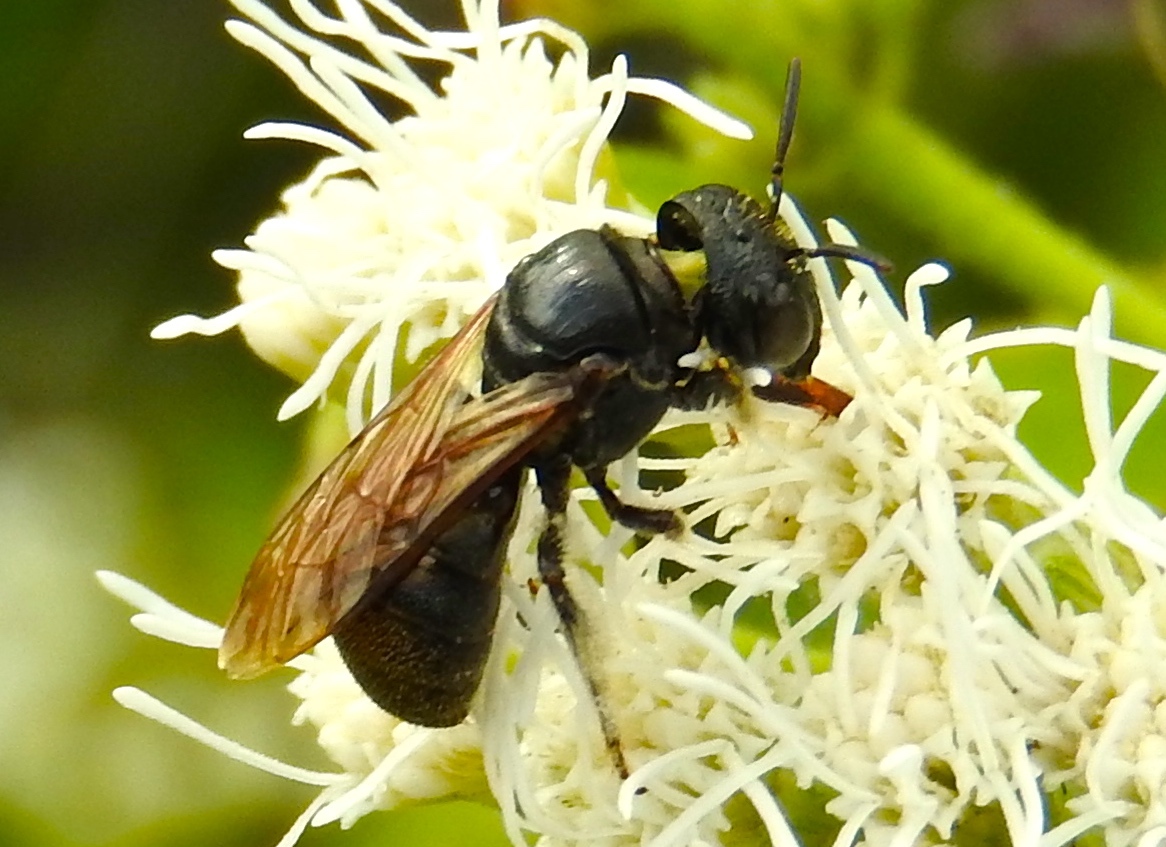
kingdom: Animalia
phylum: Arthropoda
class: Insecta
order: Hymenoptera
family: Apidae
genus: Ceratina
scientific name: Ceratina
